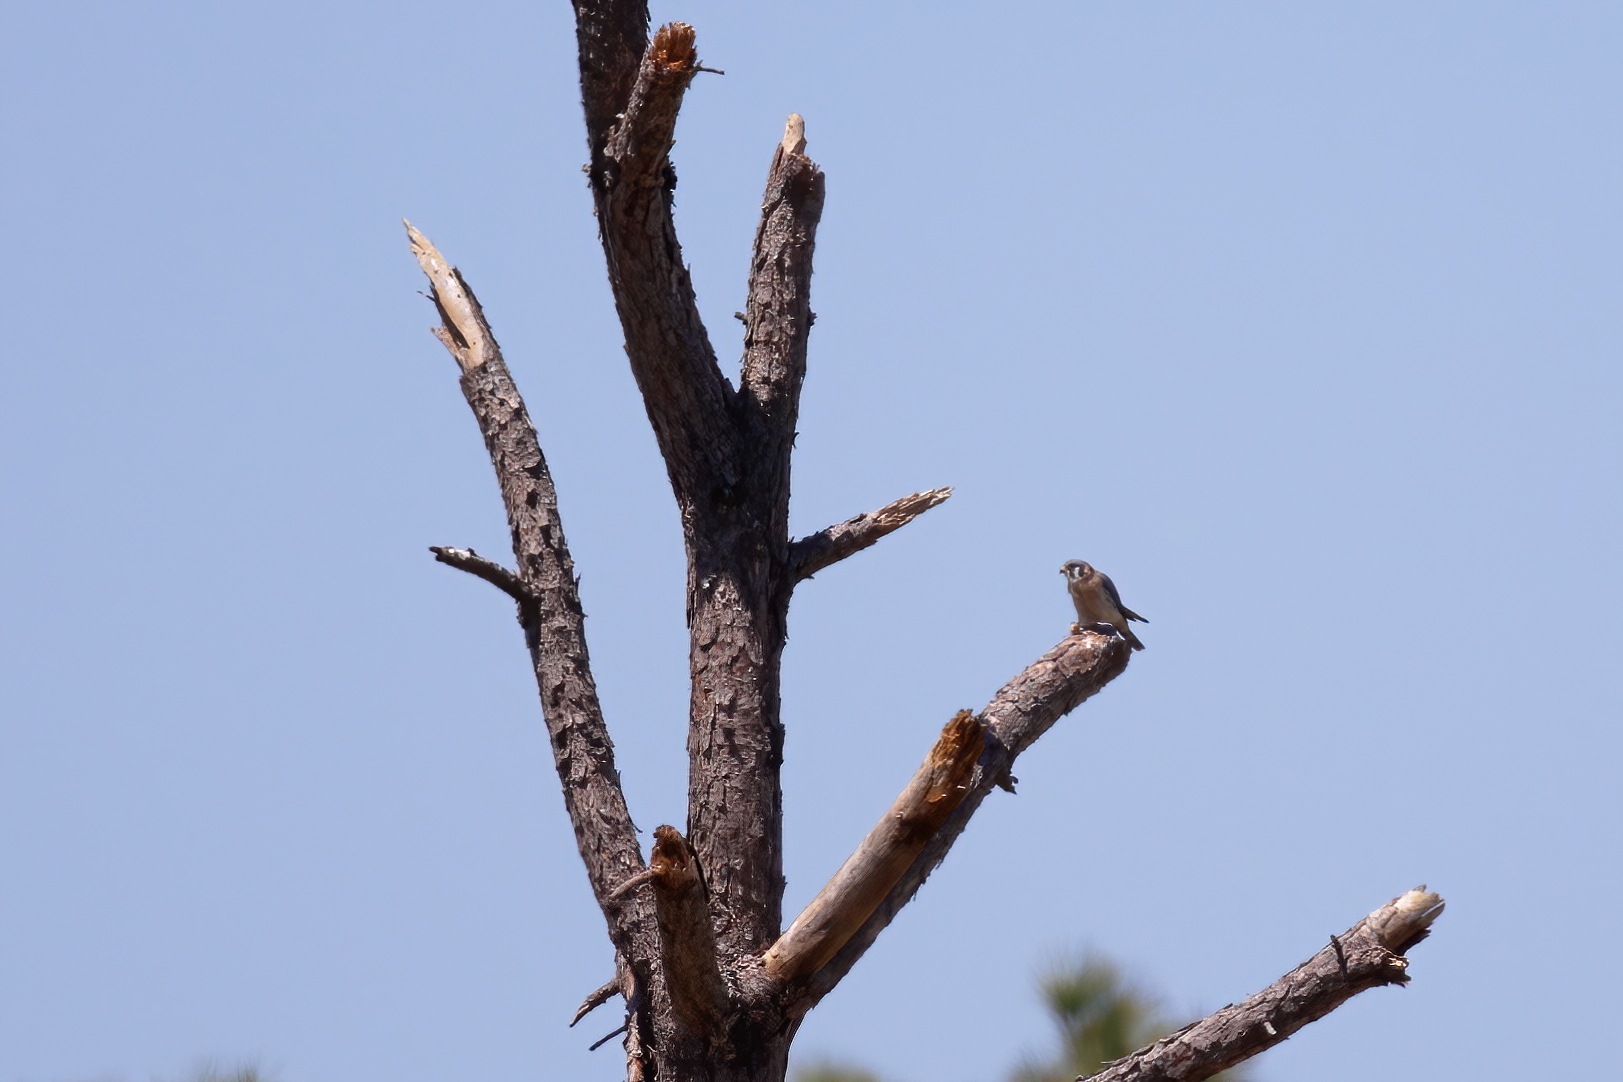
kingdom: Animalia
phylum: Chordata
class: Aves
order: Falconiformes
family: Falconidae
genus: Falco
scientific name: Falco sparverius
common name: American kestrel
